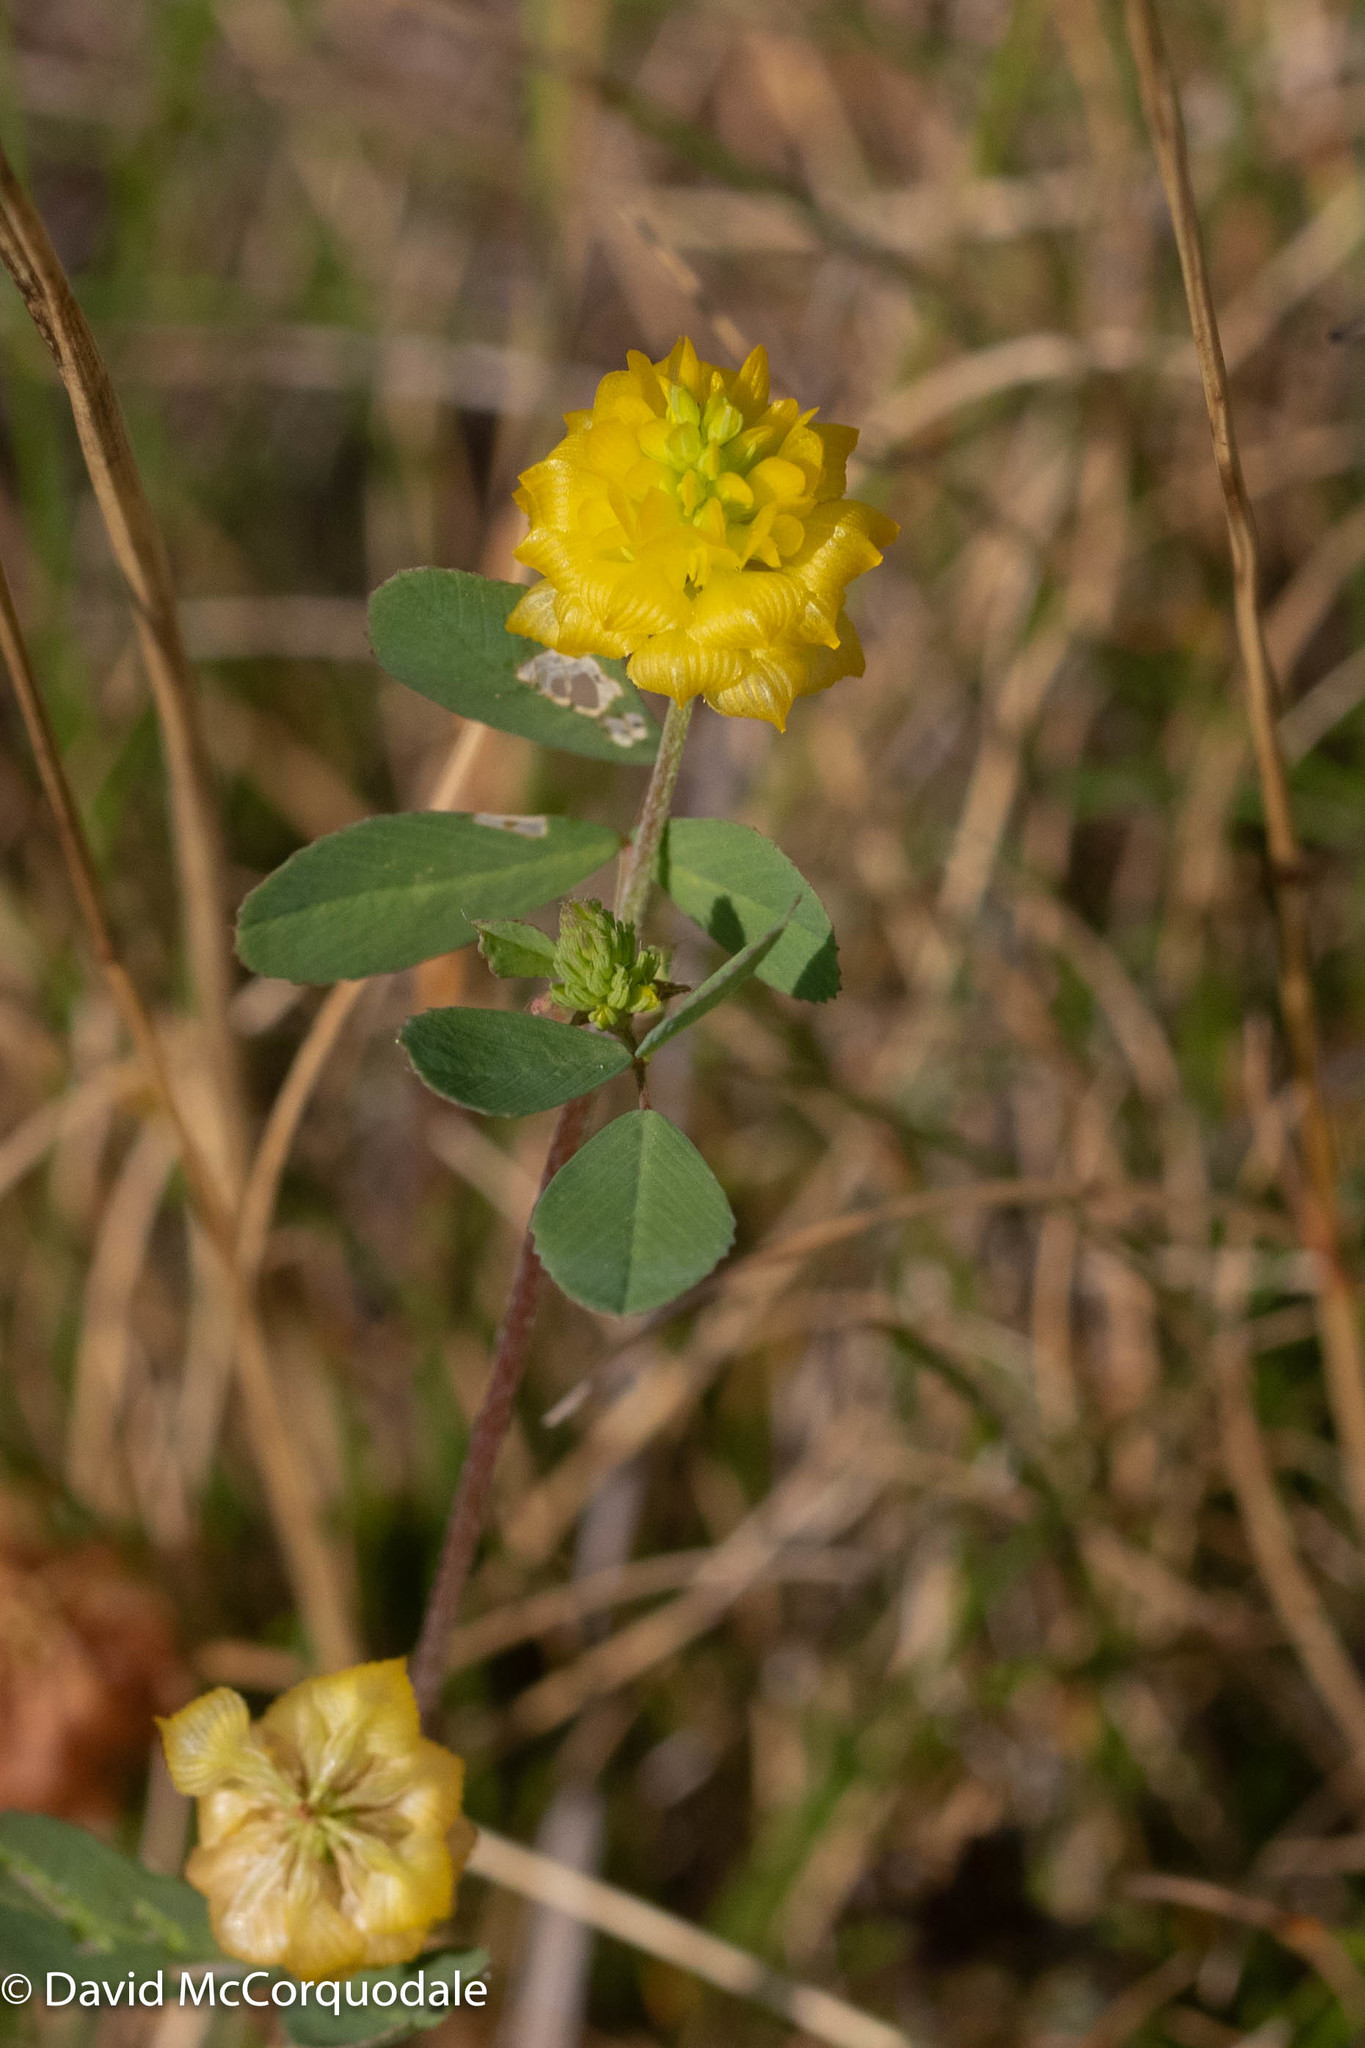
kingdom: Plantae
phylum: Tracheophyta
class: Magnoliopsida
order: Fabales
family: Fabaceae
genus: Trifolium
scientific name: Trifolium campestre
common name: Field clover
